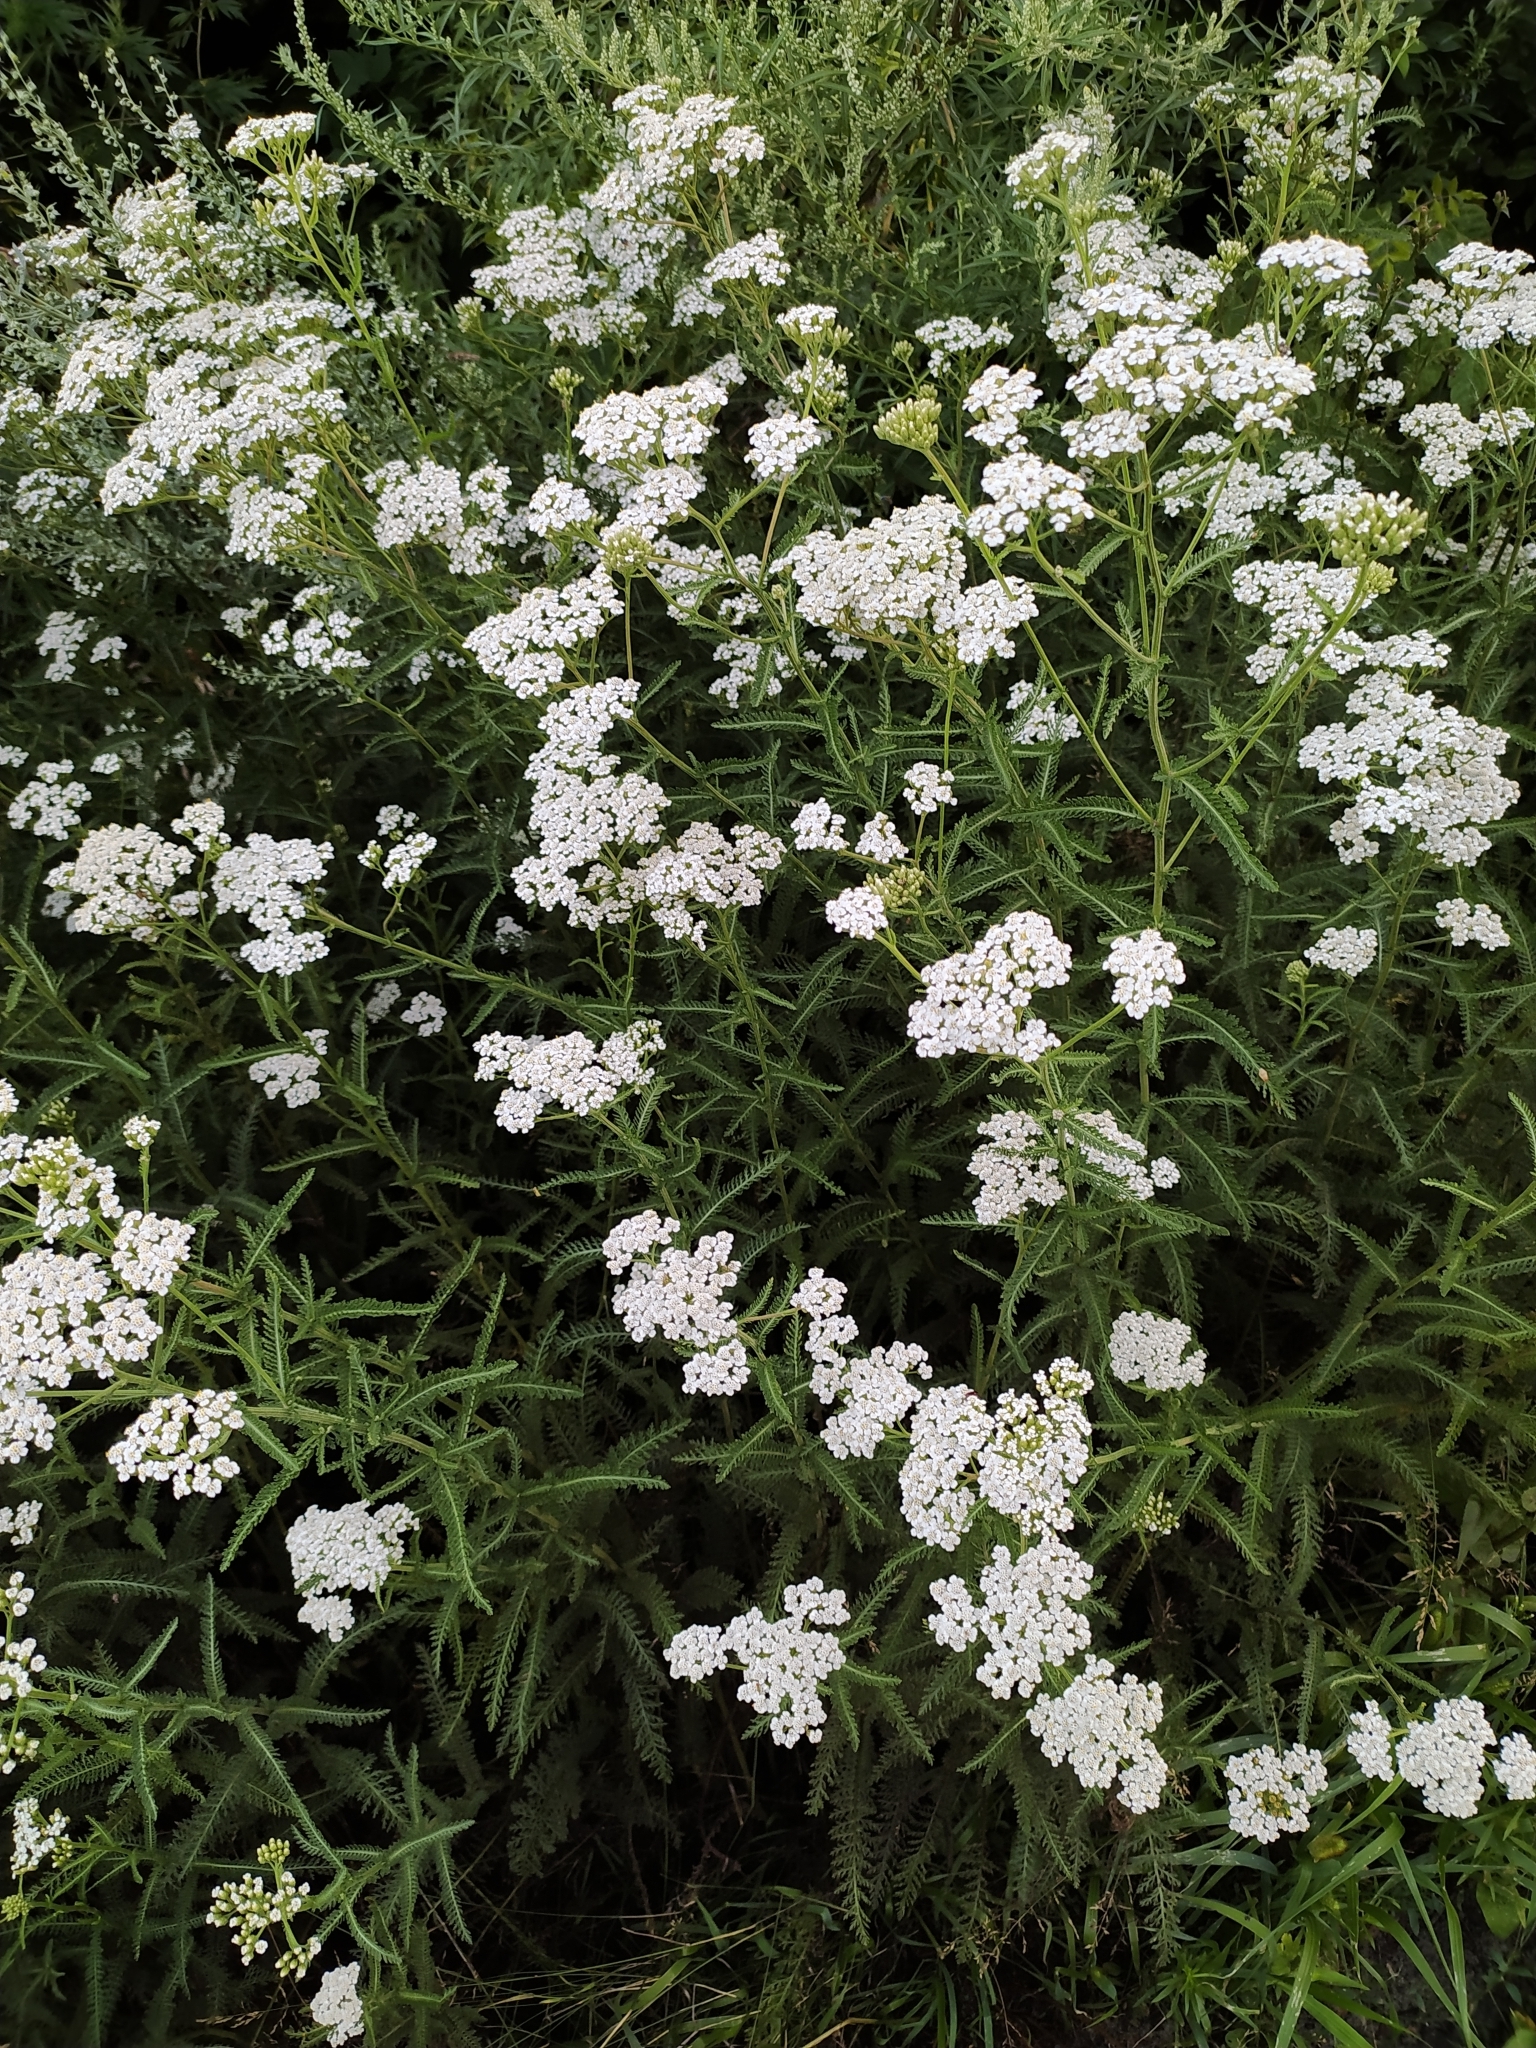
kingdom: Plantae
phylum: Tracheophyta
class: Magnoliopsida
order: Asterales
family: Asteraceae
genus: Achillea
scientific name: Achillea millefolium
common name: Yarrow
